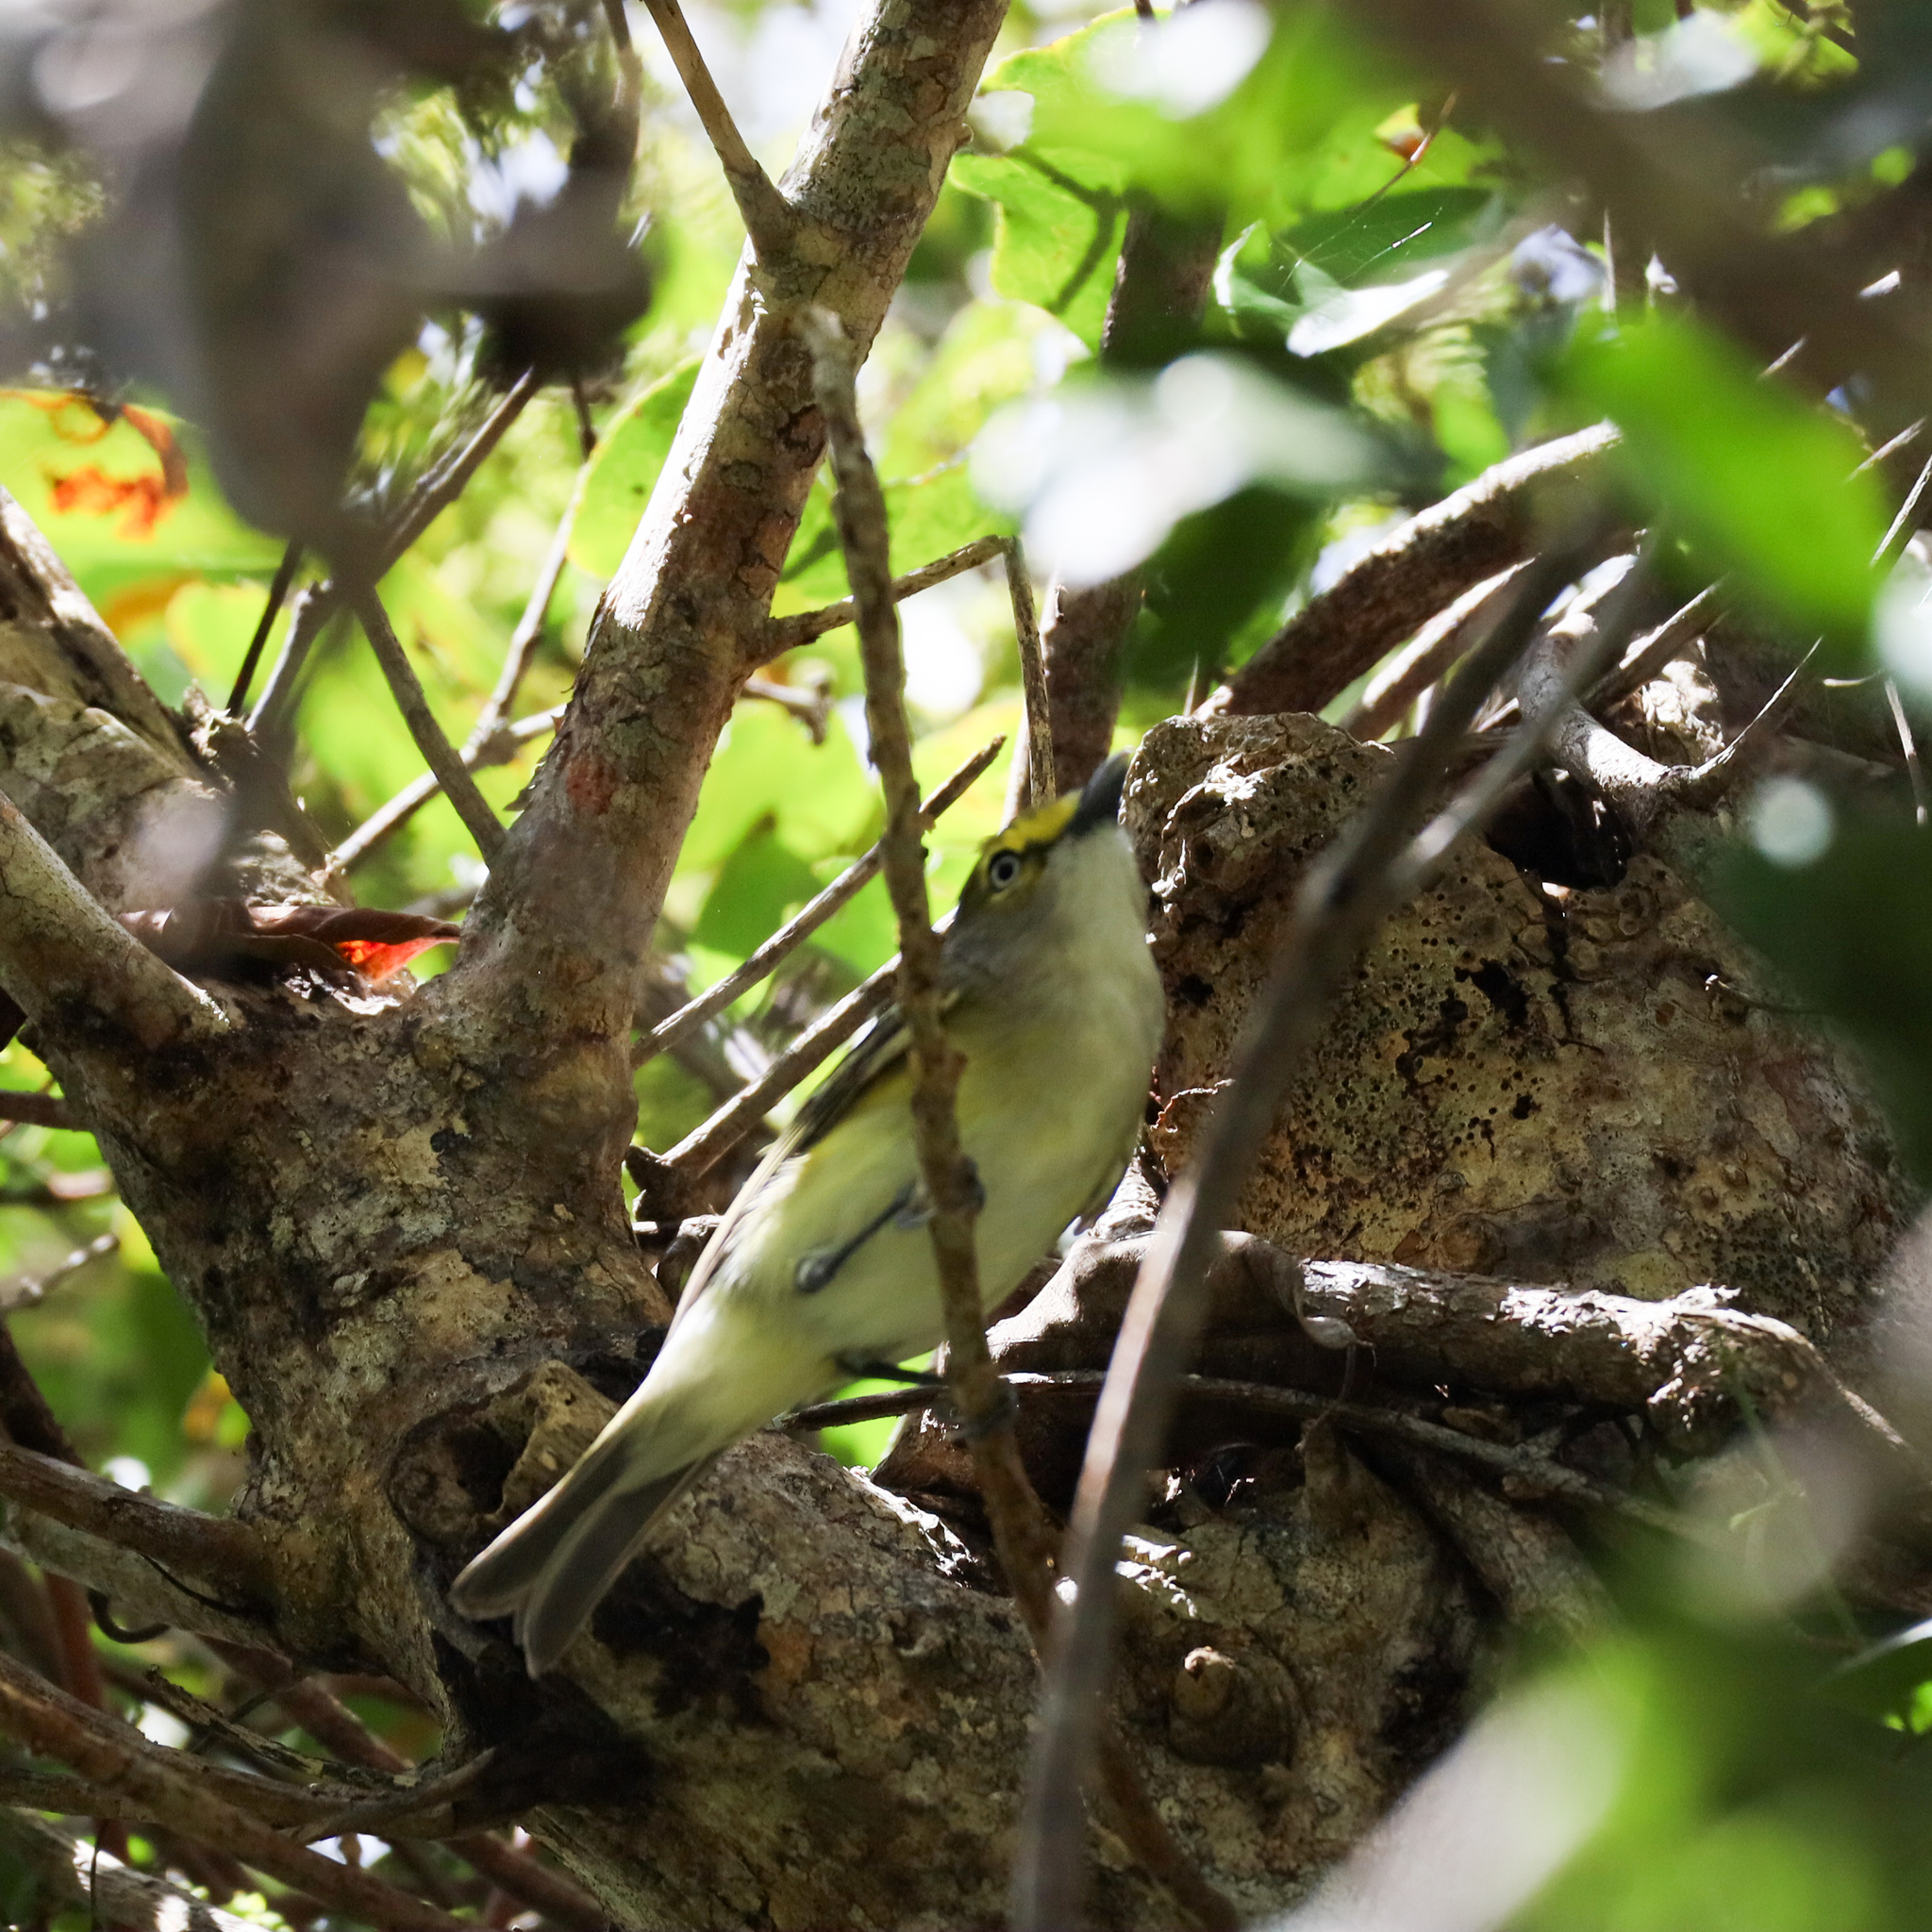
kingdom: Animalia
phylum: Chordata
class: Aves
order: Passeriformes
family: Vireonidae
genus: Vireo
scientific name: Vireo griseus
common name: White-eyed vireo
